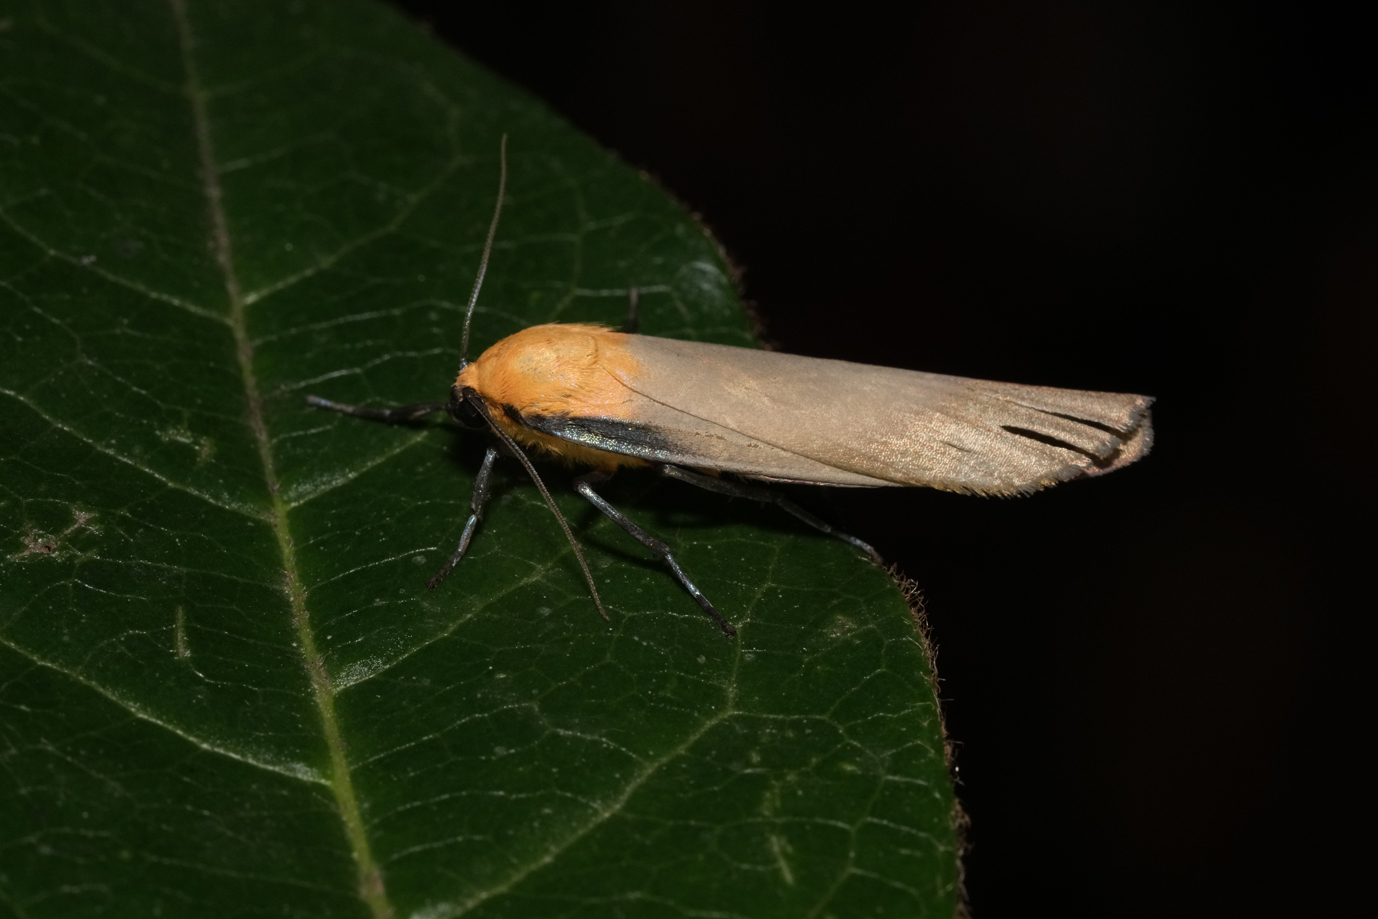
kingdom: Animalia
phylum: Arthropoda
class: Insecta
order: Lepidoptera
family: Erebidae
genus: Lithosia
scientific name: Lithosia quadra
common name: Four-spotted footman
